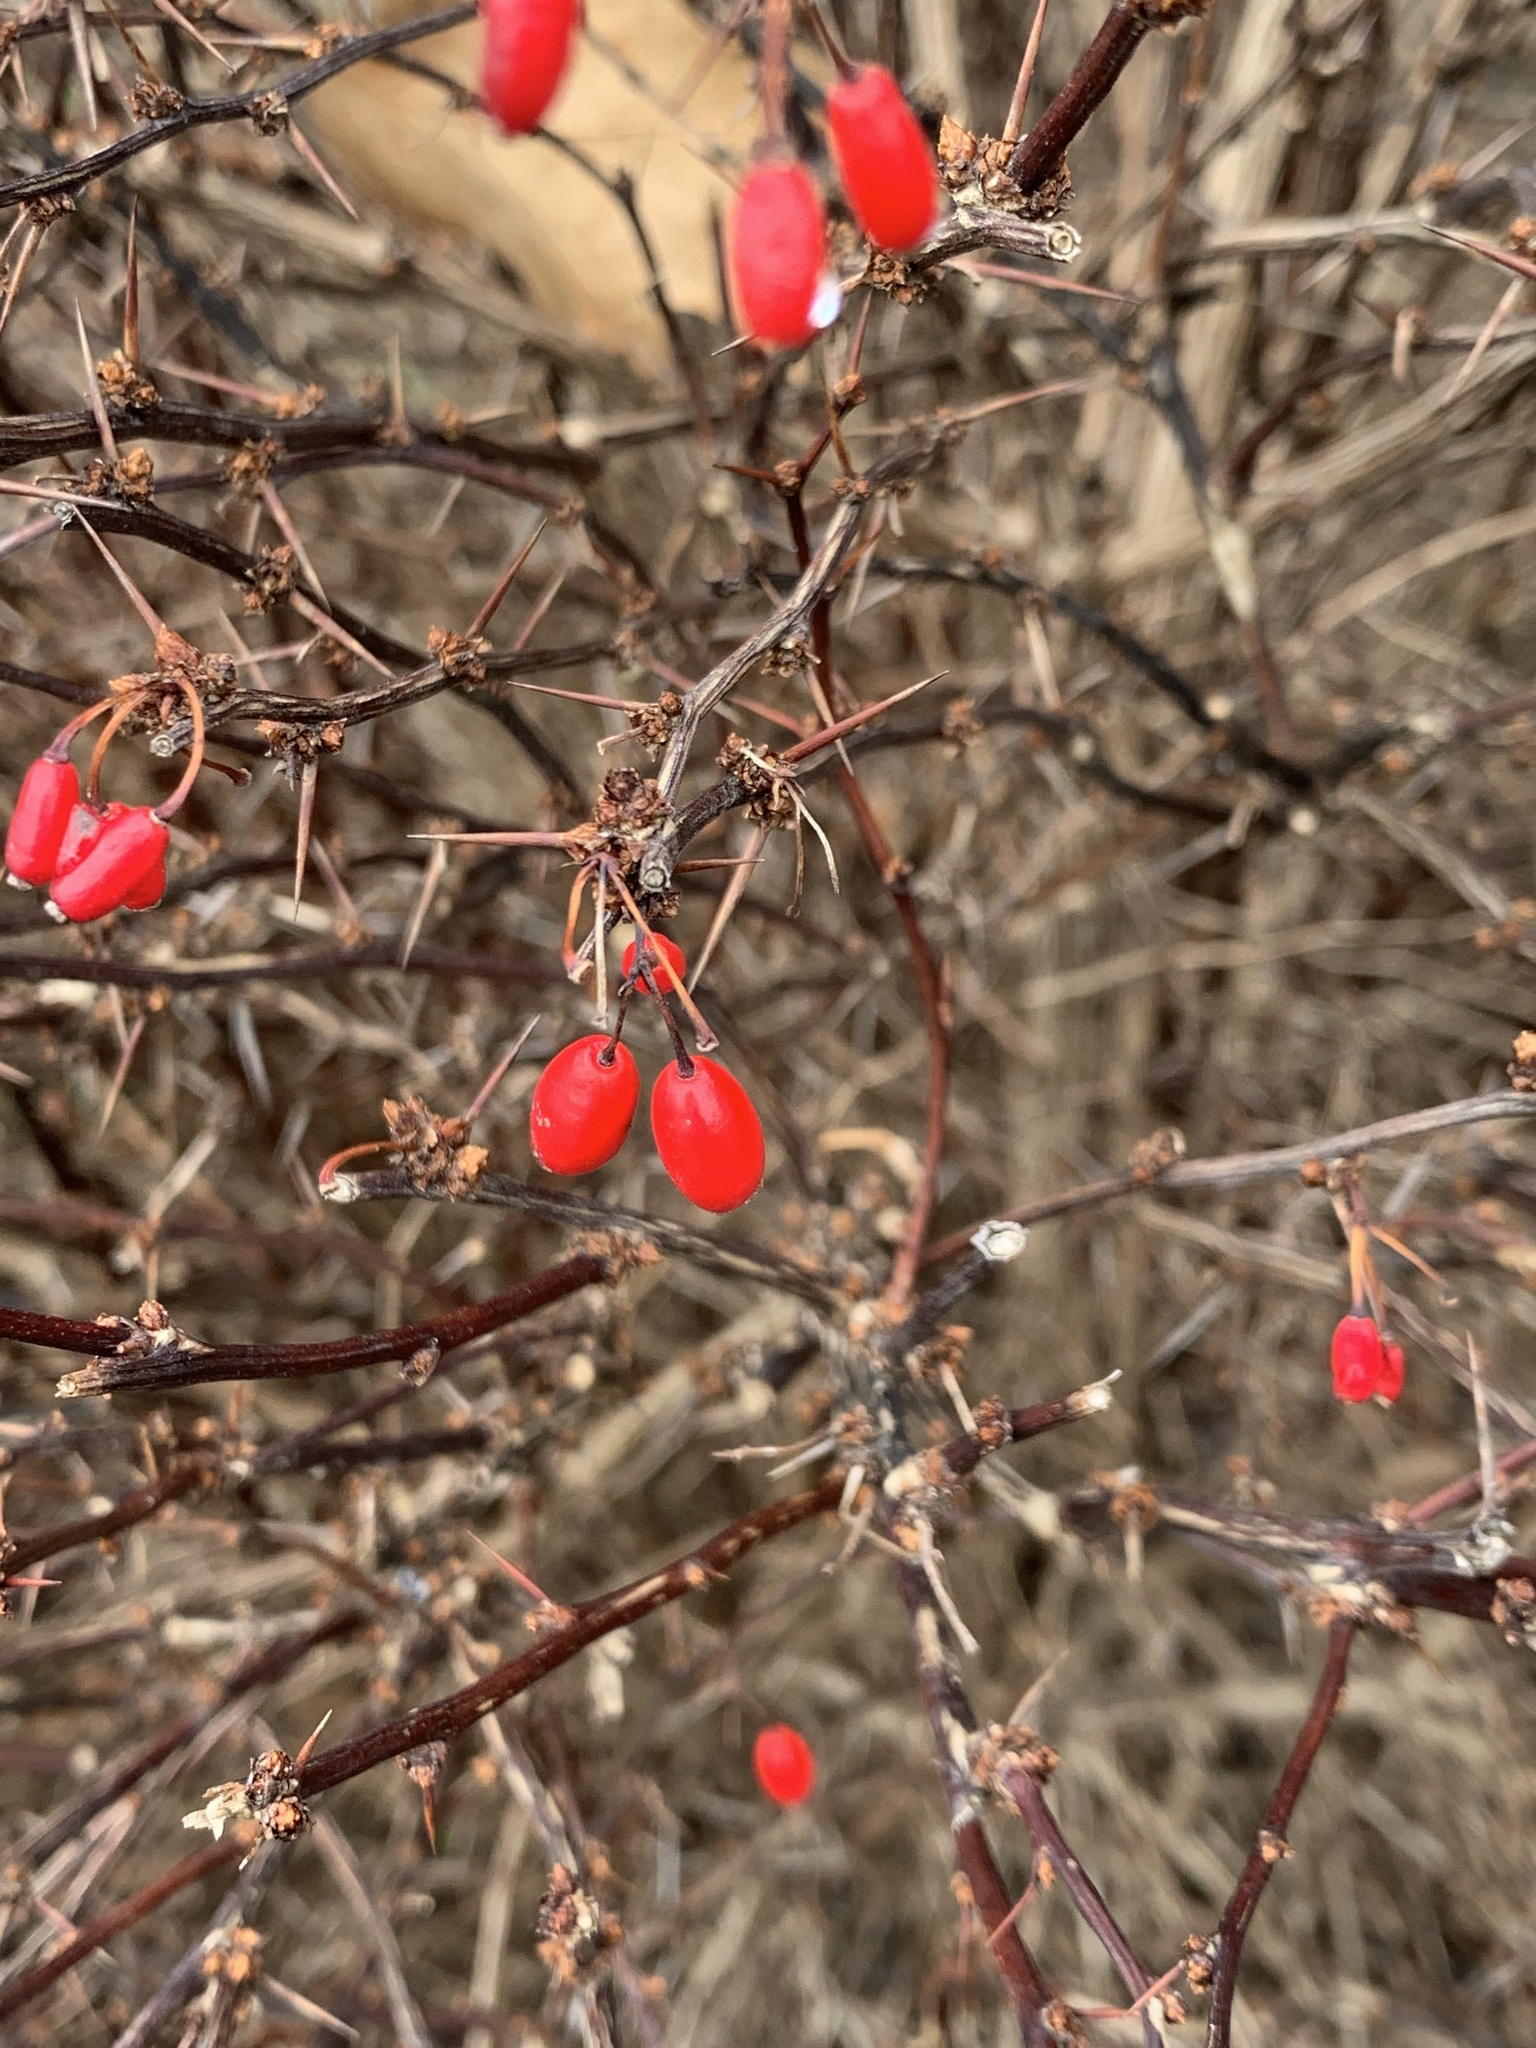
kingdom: Plantae
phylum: Tracheophyta
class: Magnoliopsida
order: Ranunculales
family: Berberidaceae
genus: Berberis
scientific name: Berberis thunbergii
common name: Japanese barberry
